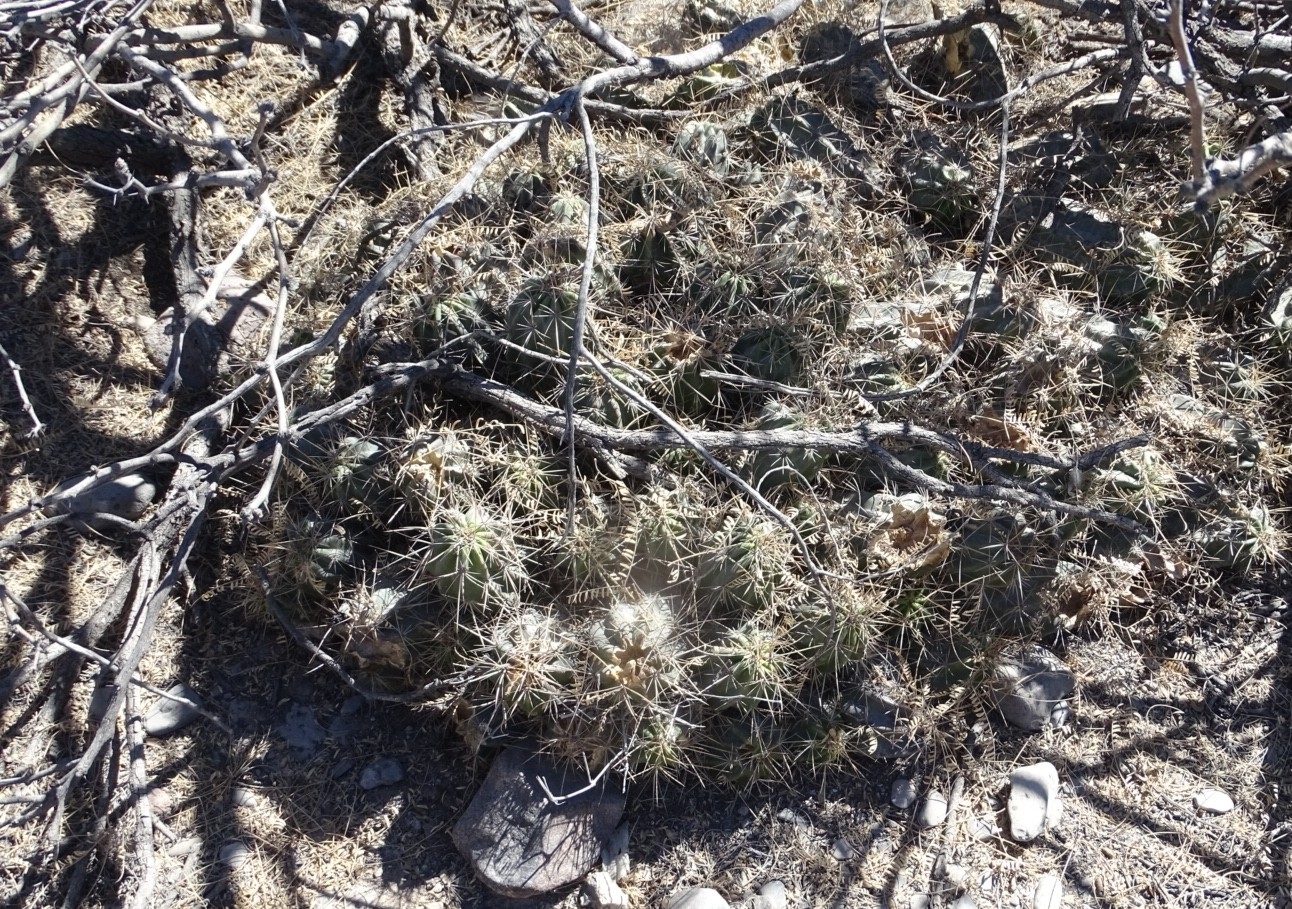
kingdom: Plantae
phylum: Tracheophyta
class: Magnoliopsida
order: Caryophyllales
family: Cactaceae
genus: Echinocereus
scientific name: Echinocereus enneacanthus
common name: Pitaya
